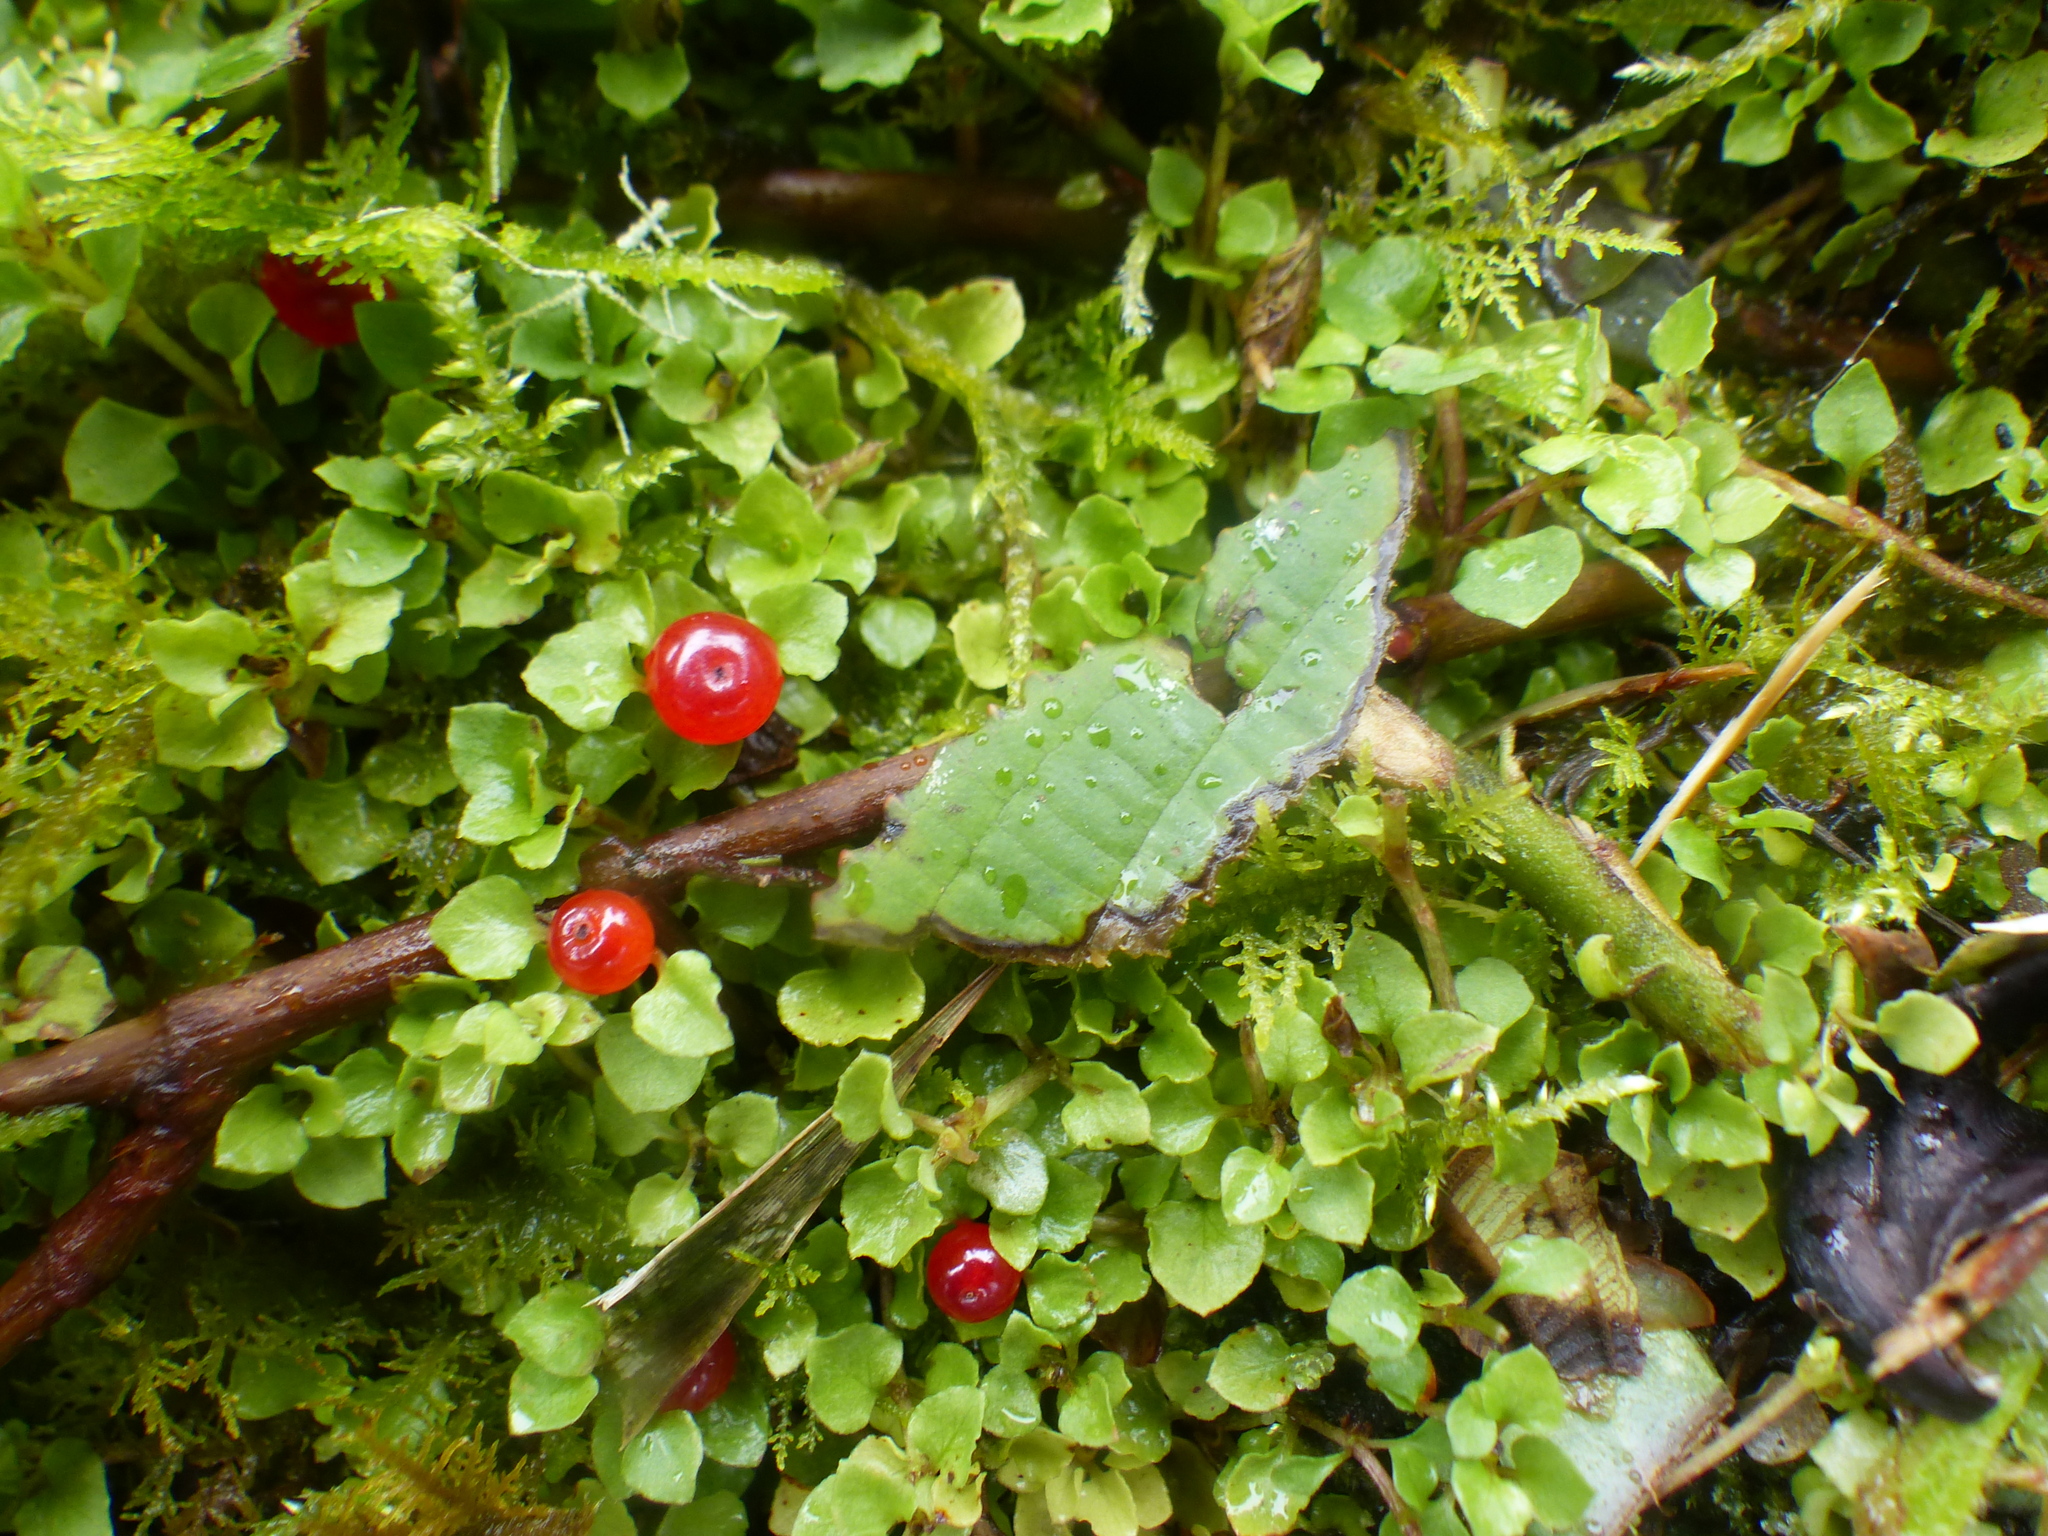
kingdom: Plantae
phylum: Tracheophyta
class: Magnoliopsida
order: Gentianales
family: Rubiaceae
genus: Nertera
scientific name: Nertera granadensis
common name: Beadplant
